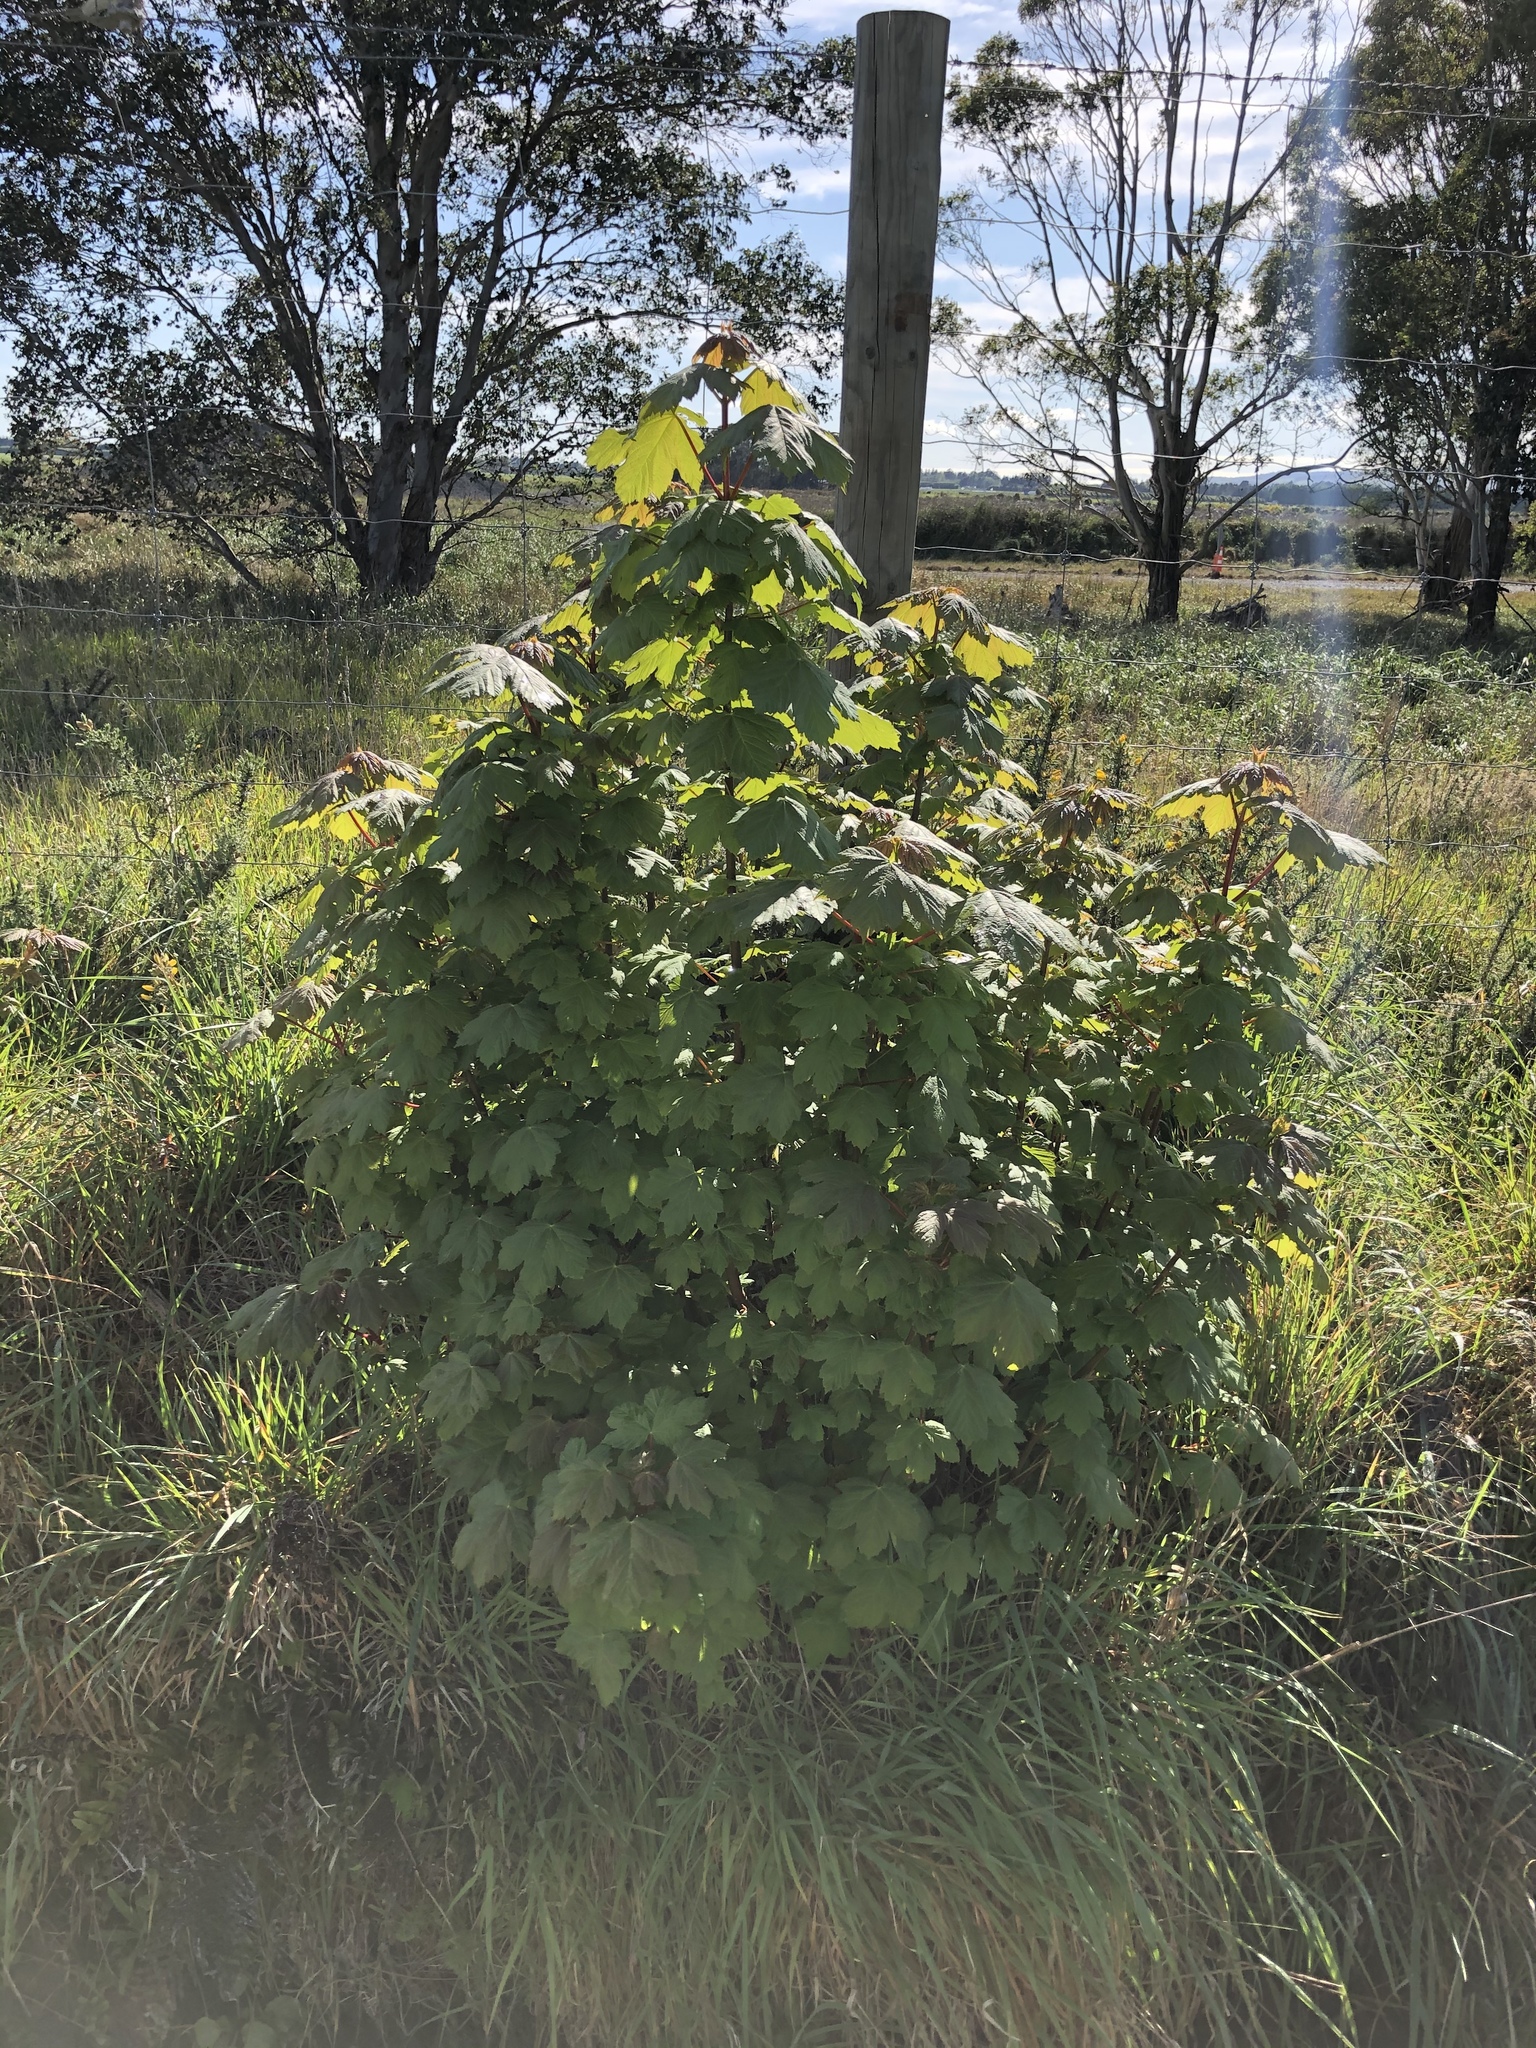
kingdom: Plantae
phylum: Tracheophyta
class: Magnoliopsida
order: Sapindales
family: Sapindaceae
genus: Acer
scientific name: Acer pseudoplatanus
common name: Sycamore
